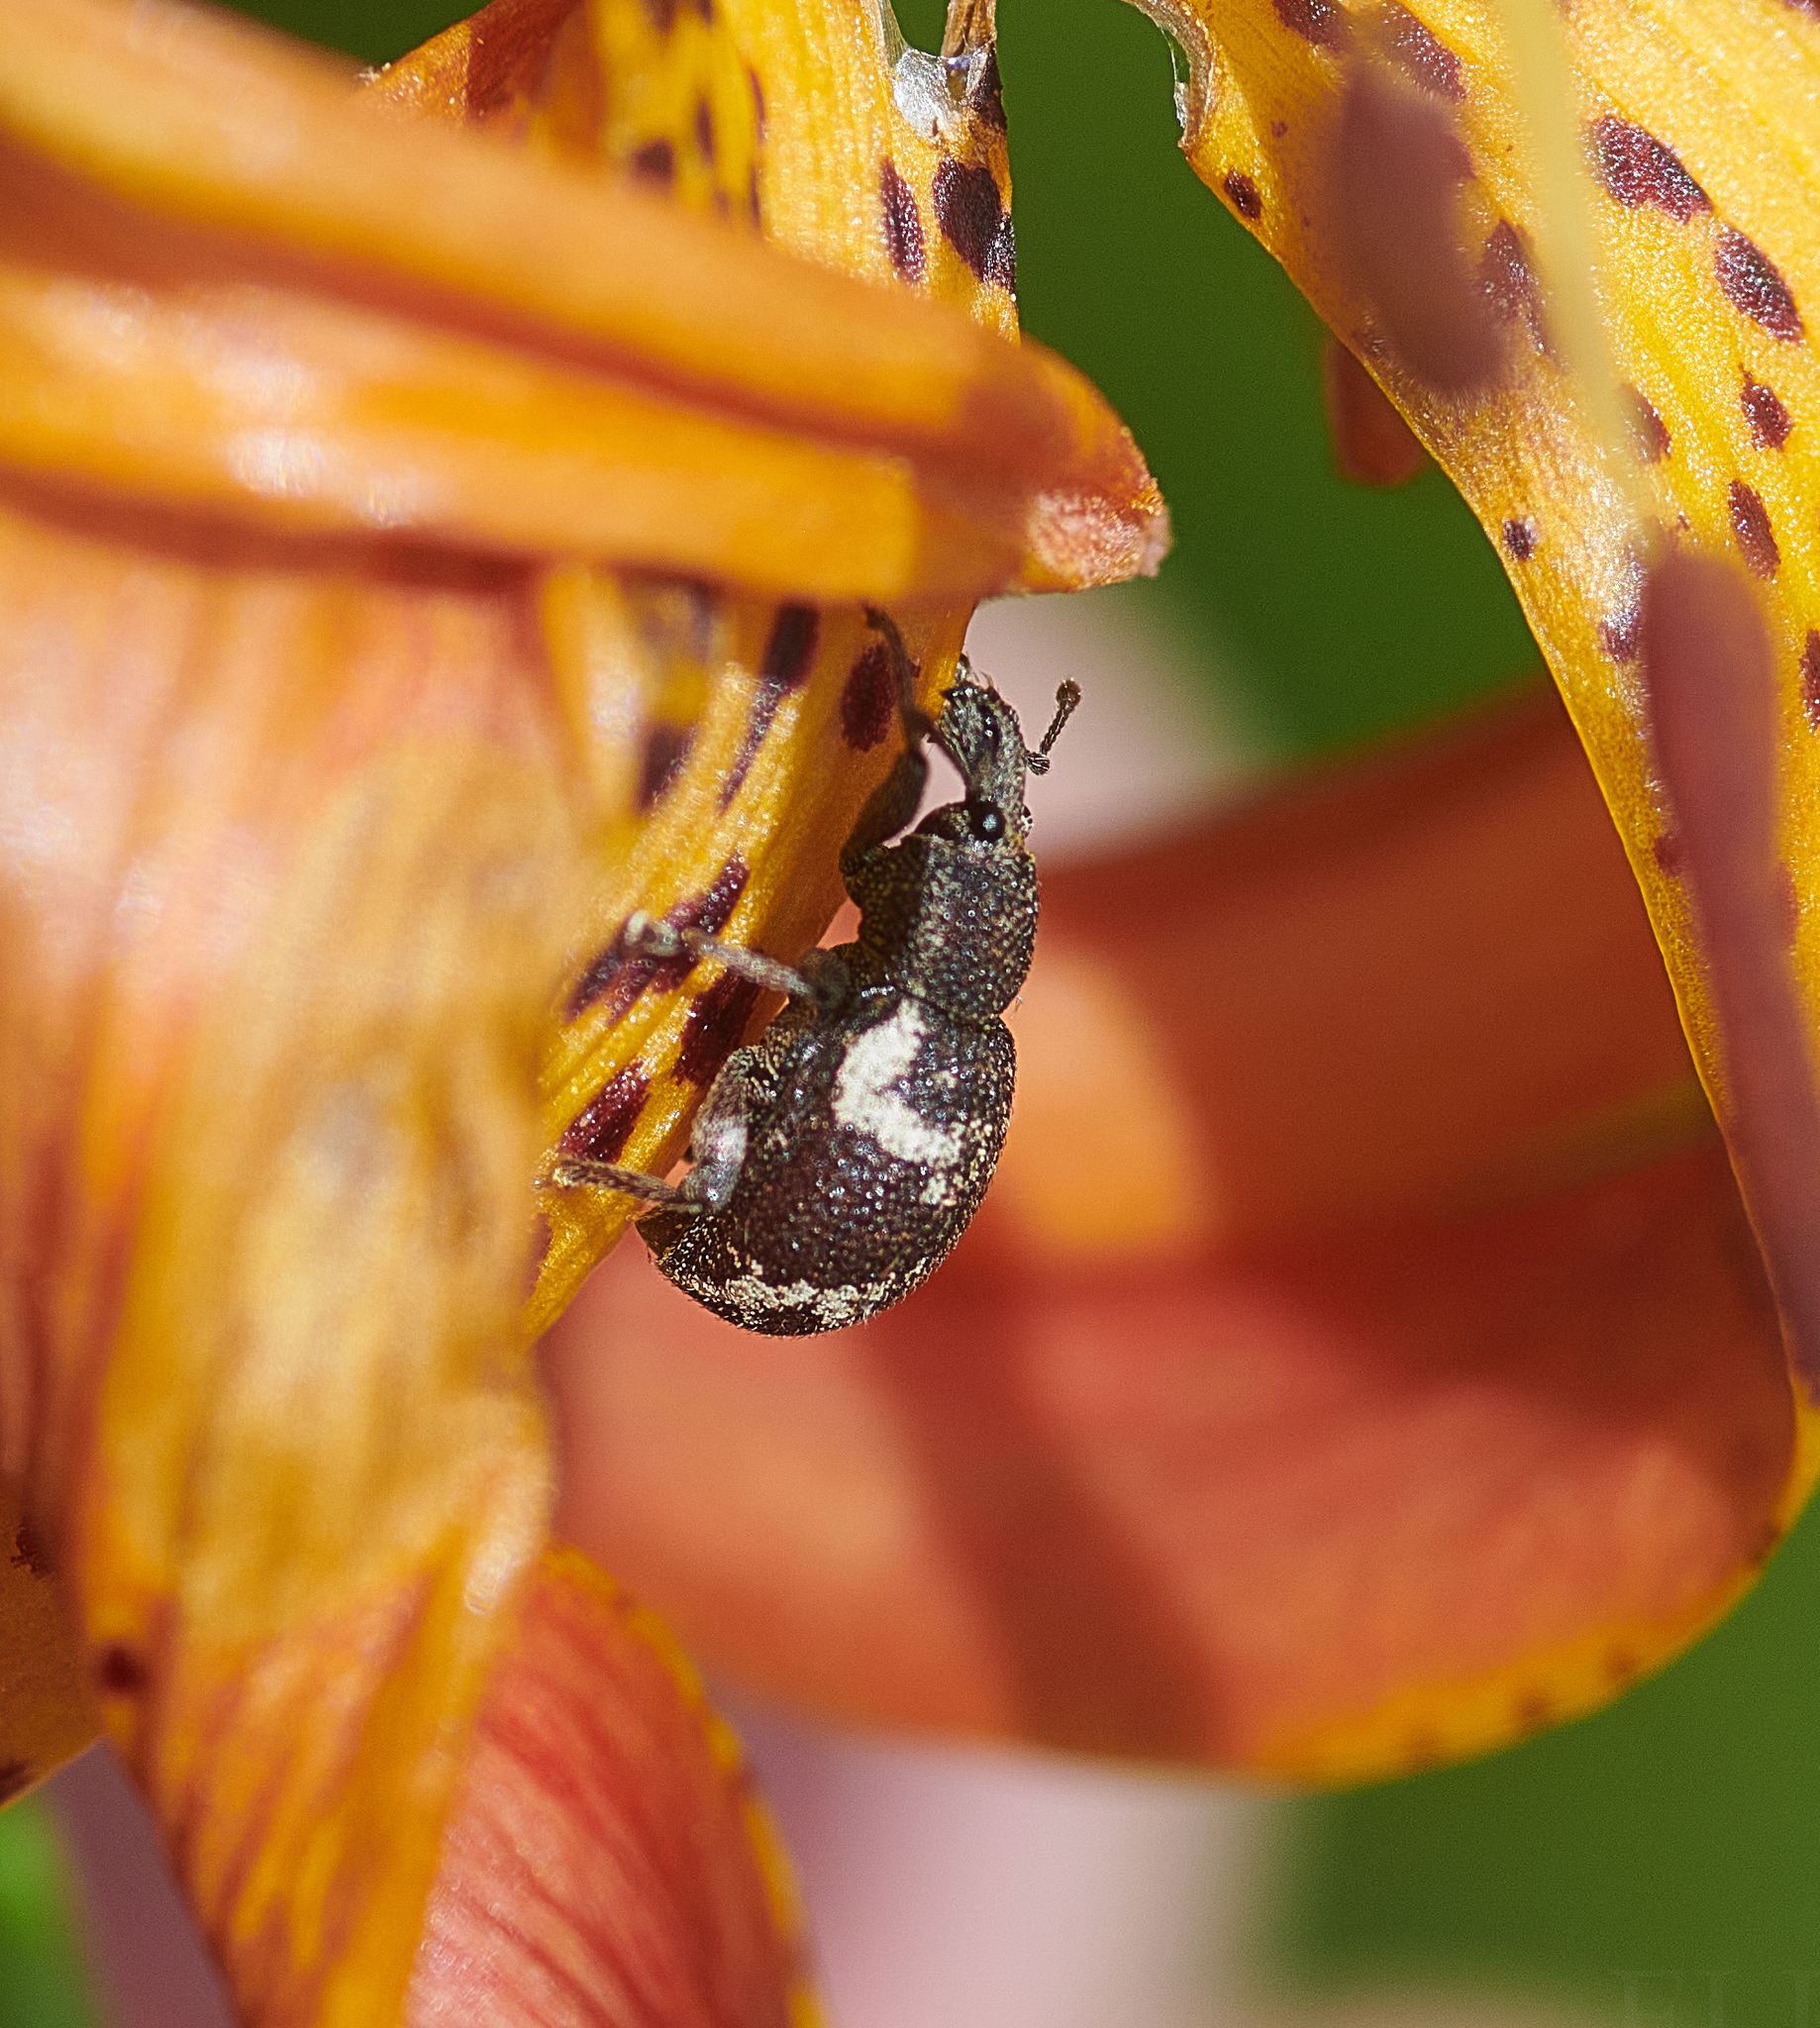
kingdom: Animalia
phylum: Arthropoda
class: Insecta
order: Coleoptera
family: Curculionidae
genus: Hormorus
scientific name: Hormorus undulatus
